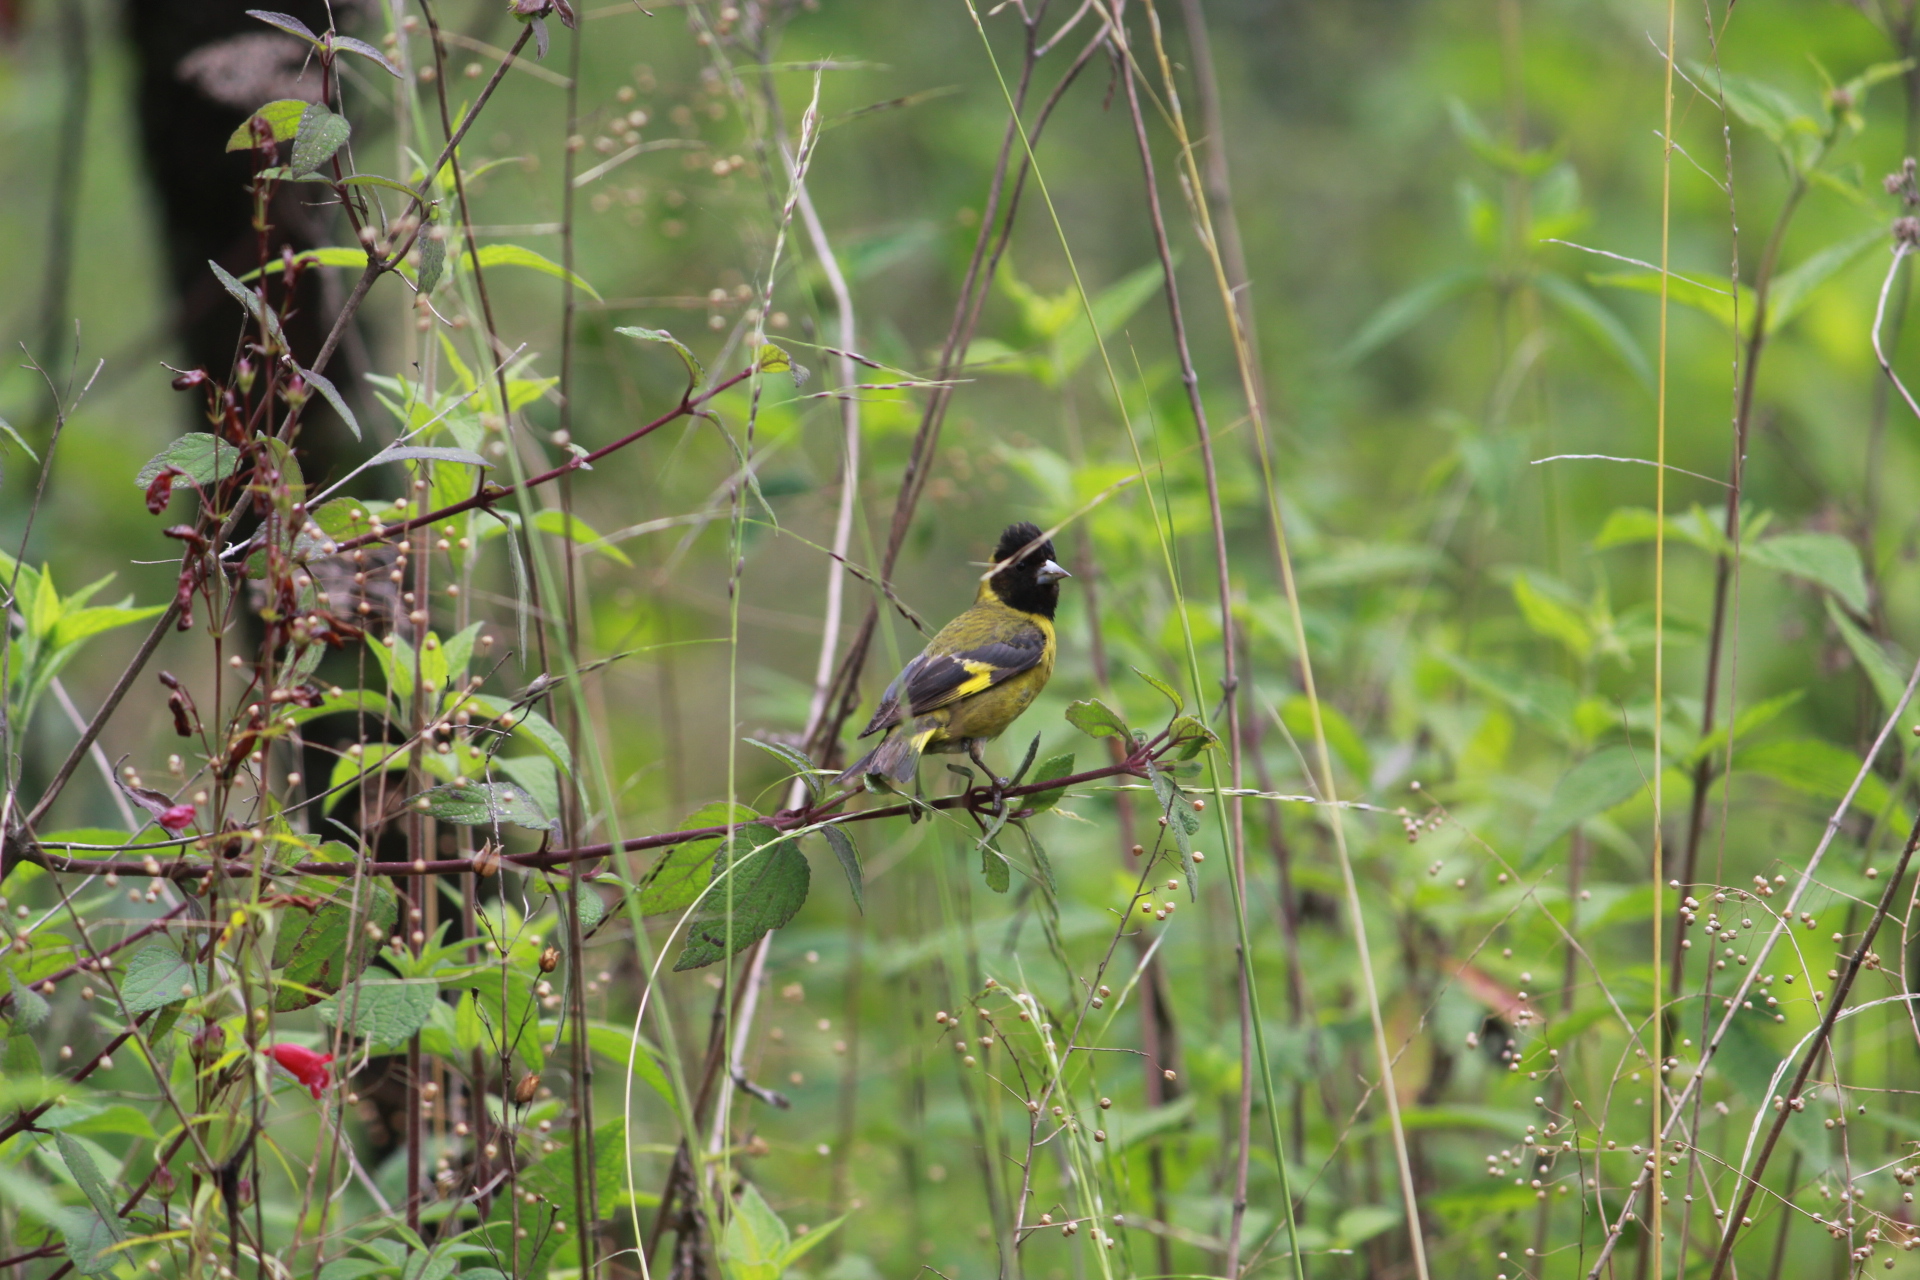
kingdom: Animalia
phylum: Chordata
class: Aves
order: Passeriformes
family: Fringillidae
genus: Spinus
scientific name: Spinus notatus
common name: Black-headed siskin
